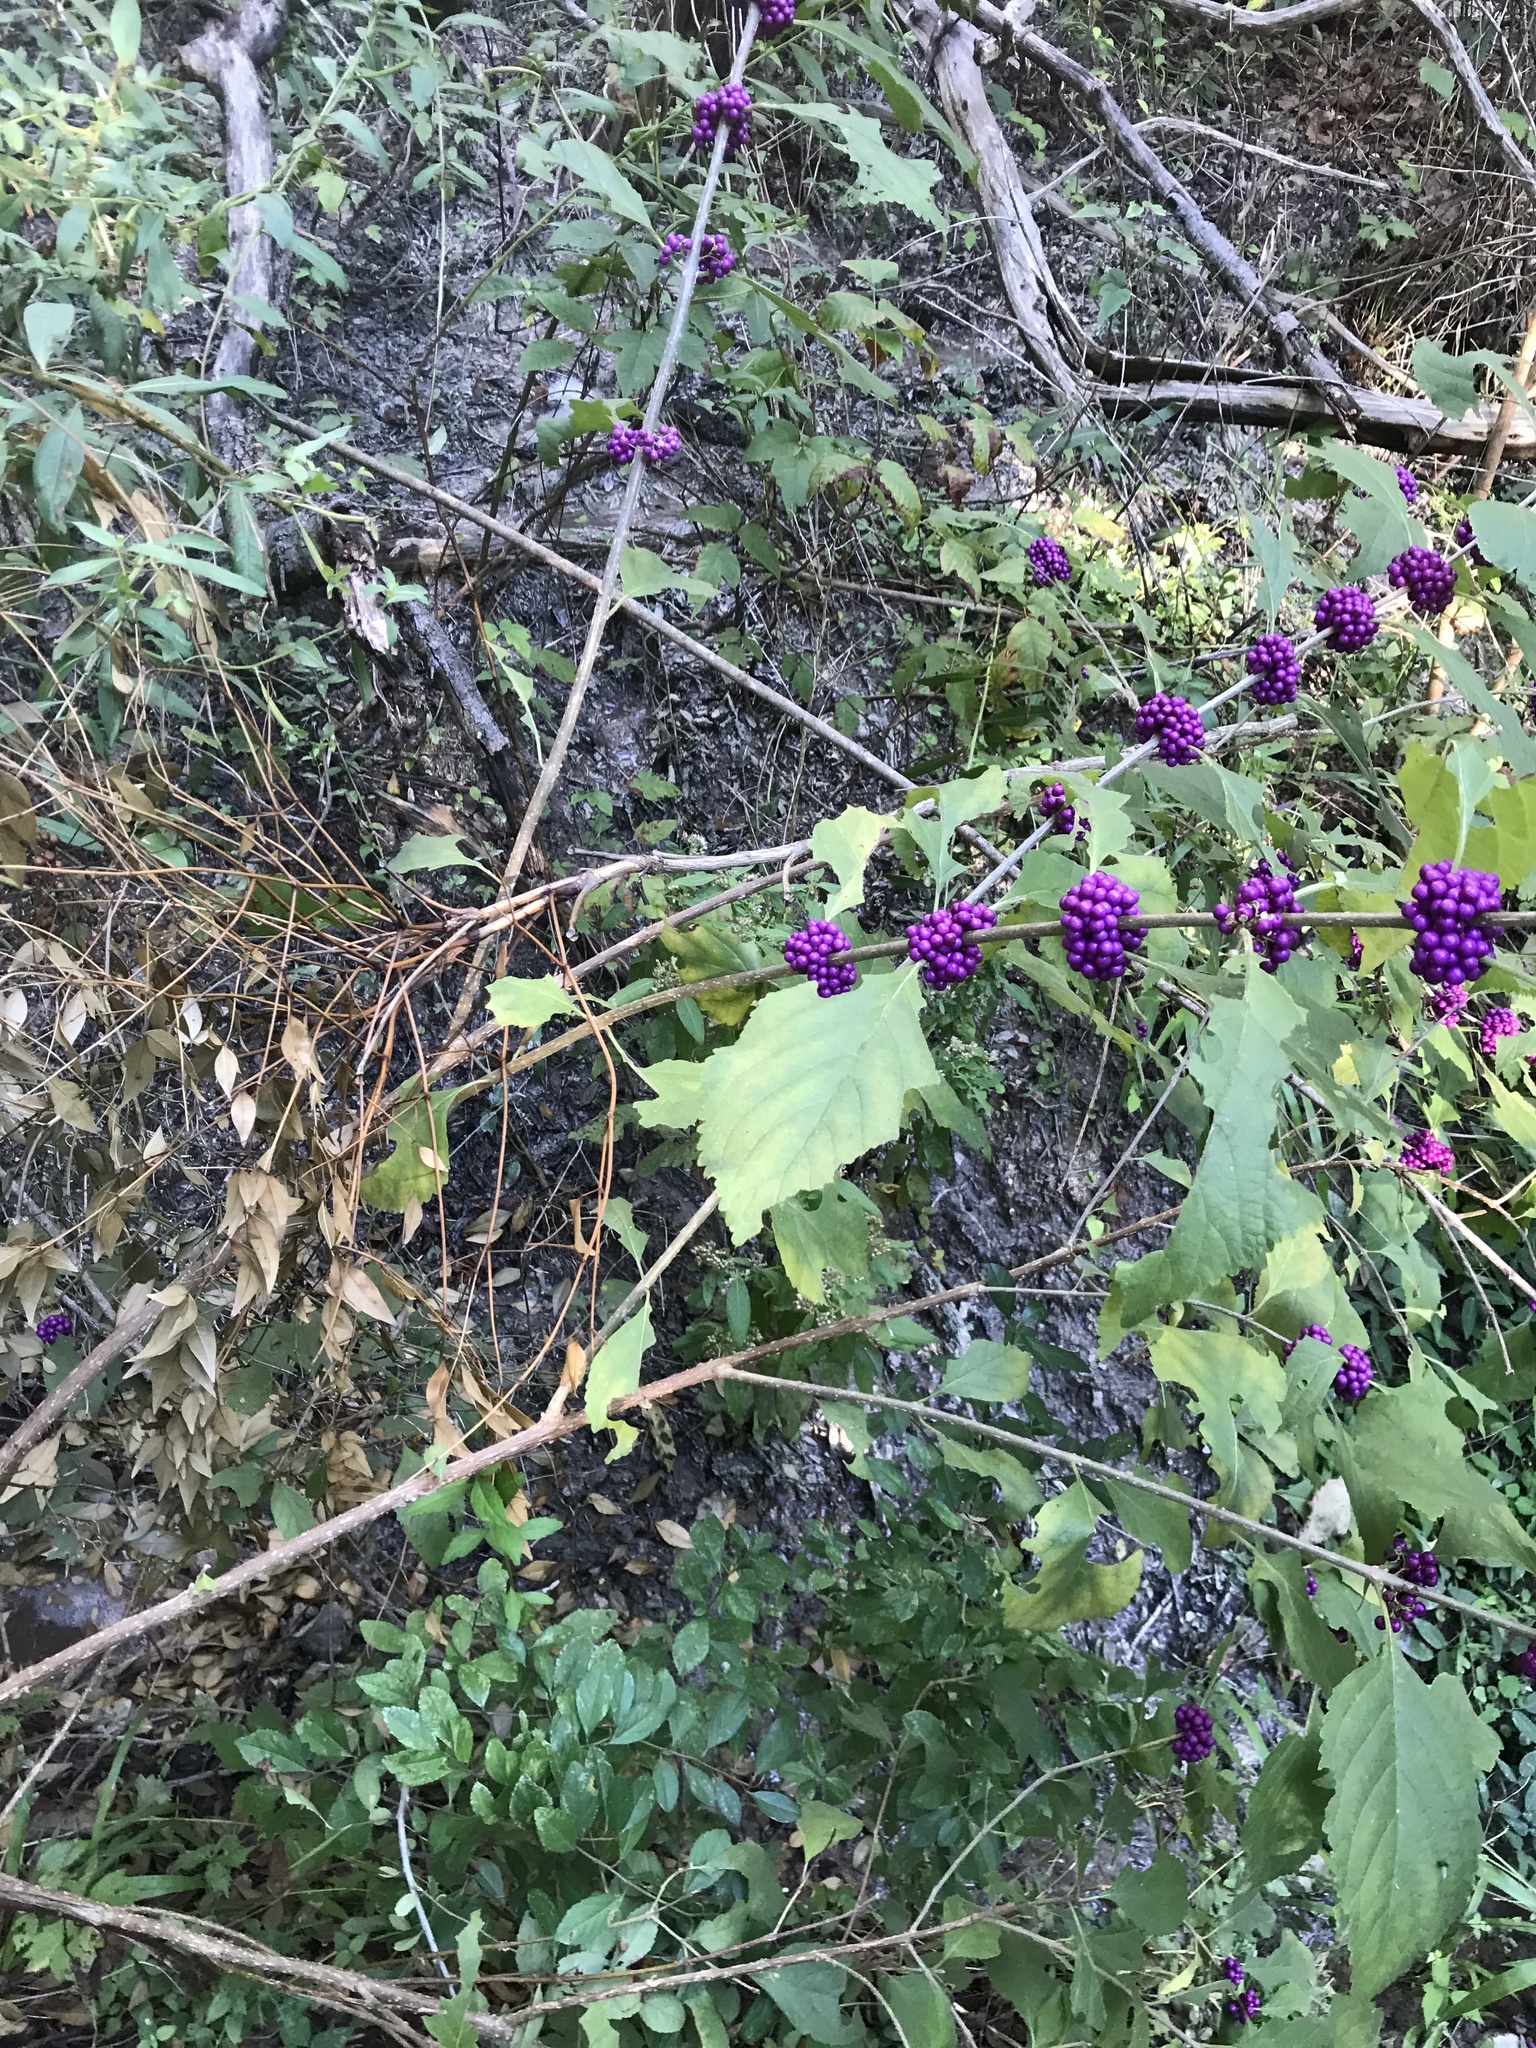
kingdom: Plantae
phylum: Tracheophyta
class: Magnoliopsida
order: Lamiales
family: Lamiaceae
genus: Callicarpa
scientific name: Callicarpa americana
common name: American beautyberry
